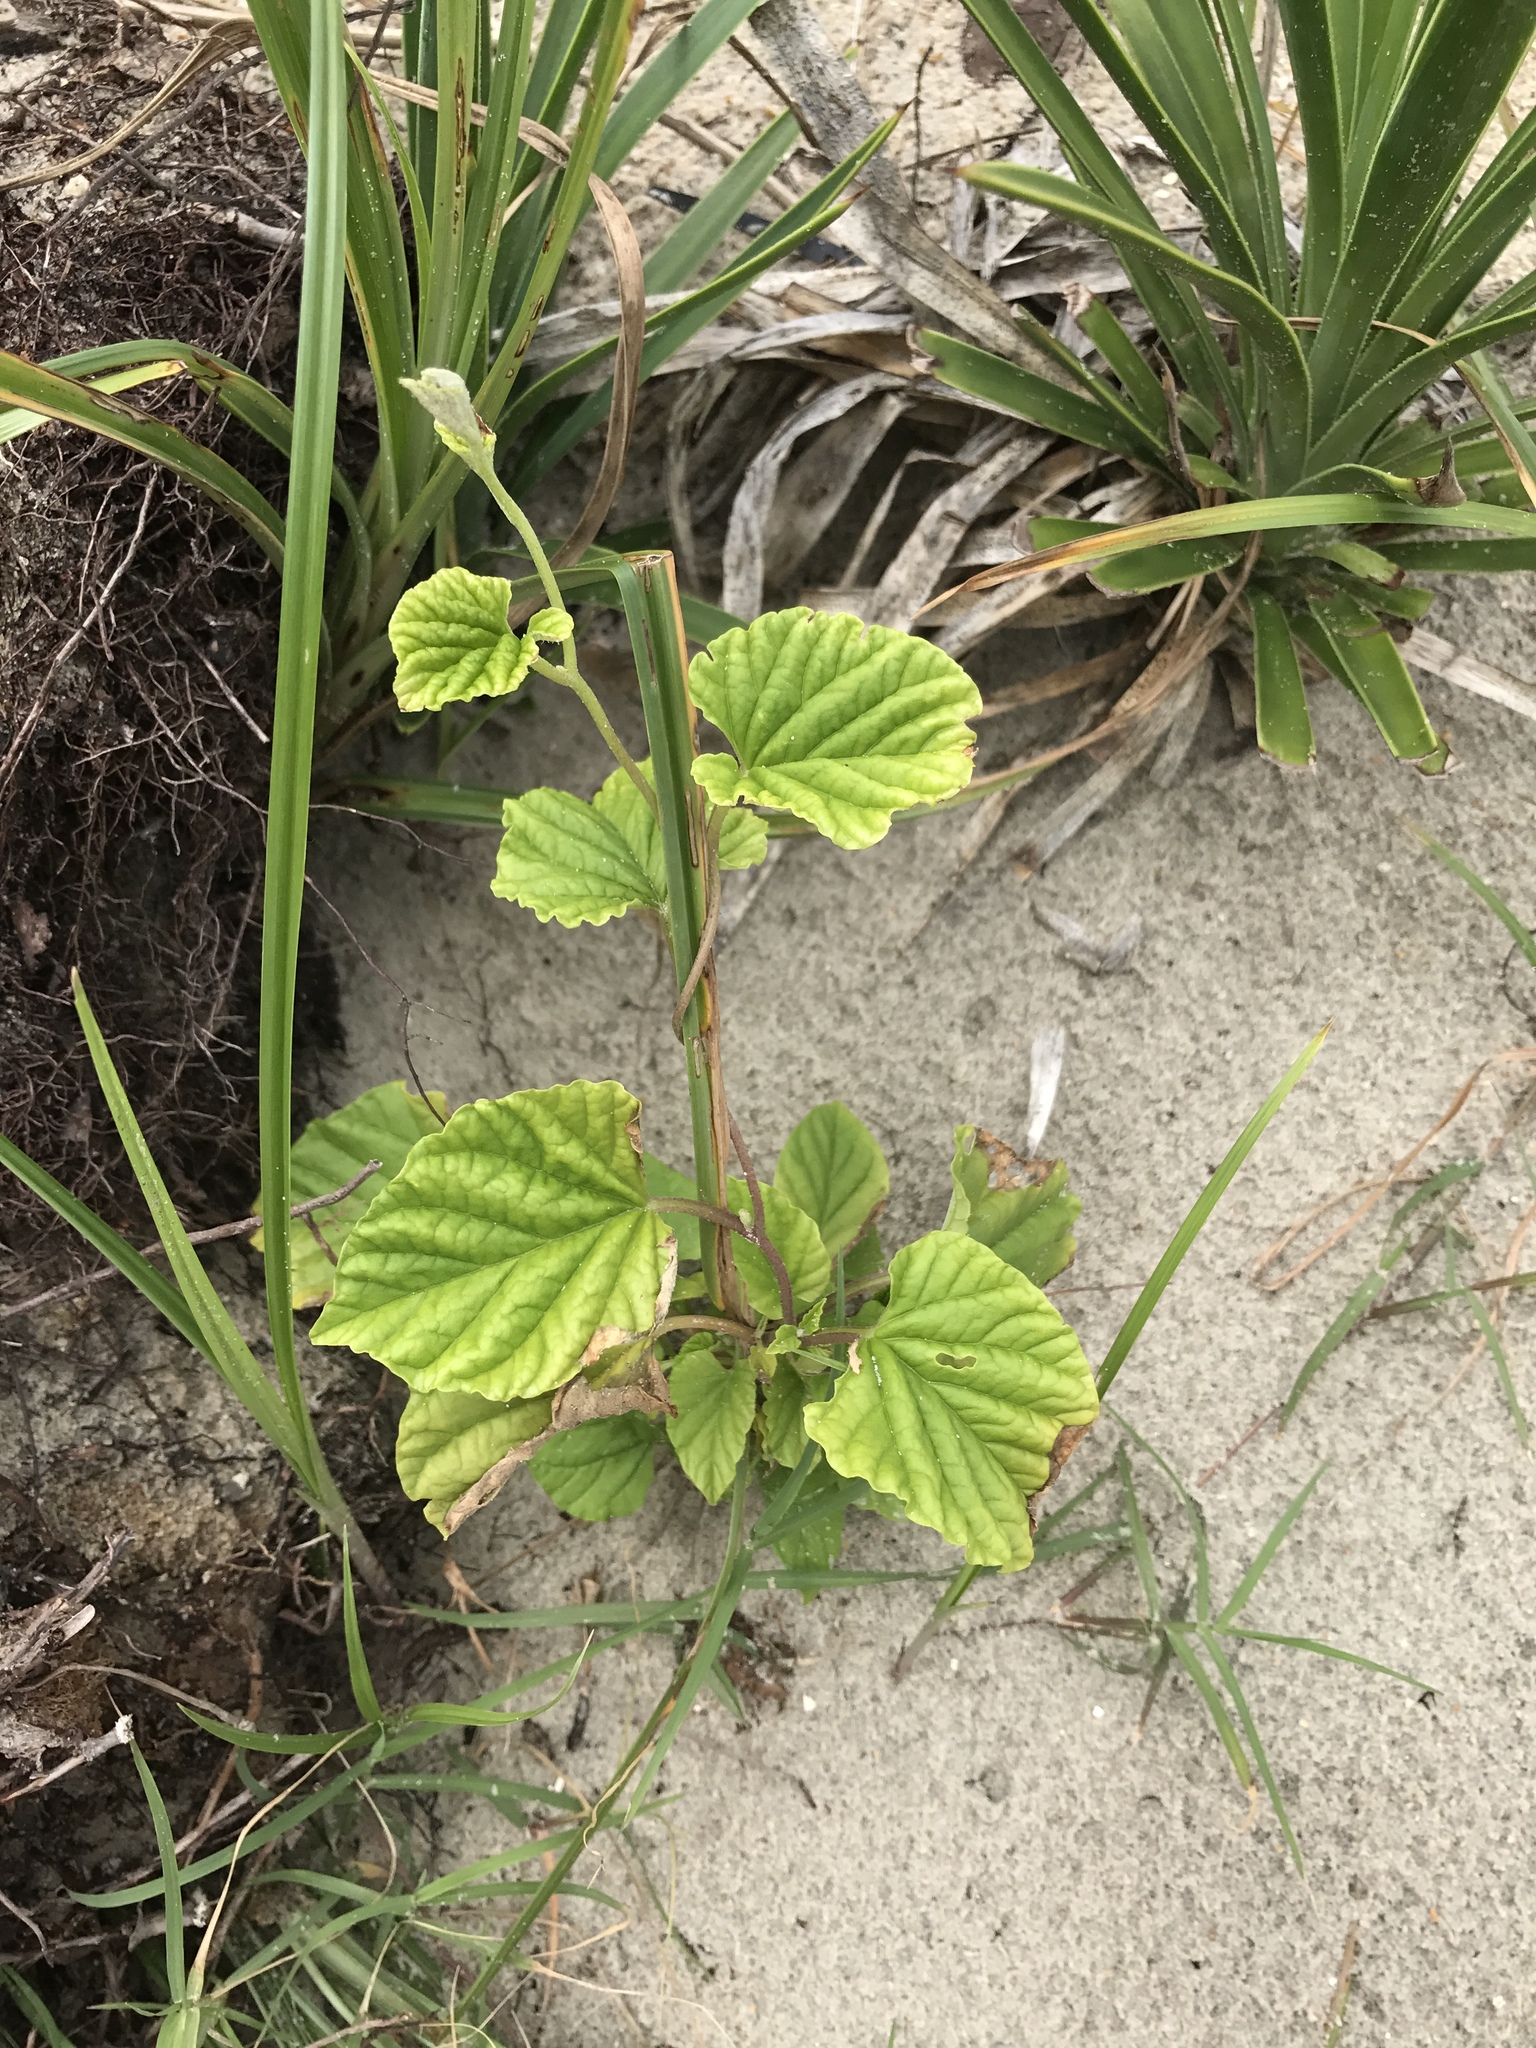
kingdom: Plantae
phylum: Tracheophyta
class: Magnoliopsida
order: Solanales
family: Convolvulaceae
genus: Ipomoea
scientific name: Ipomoea macrorhiza
